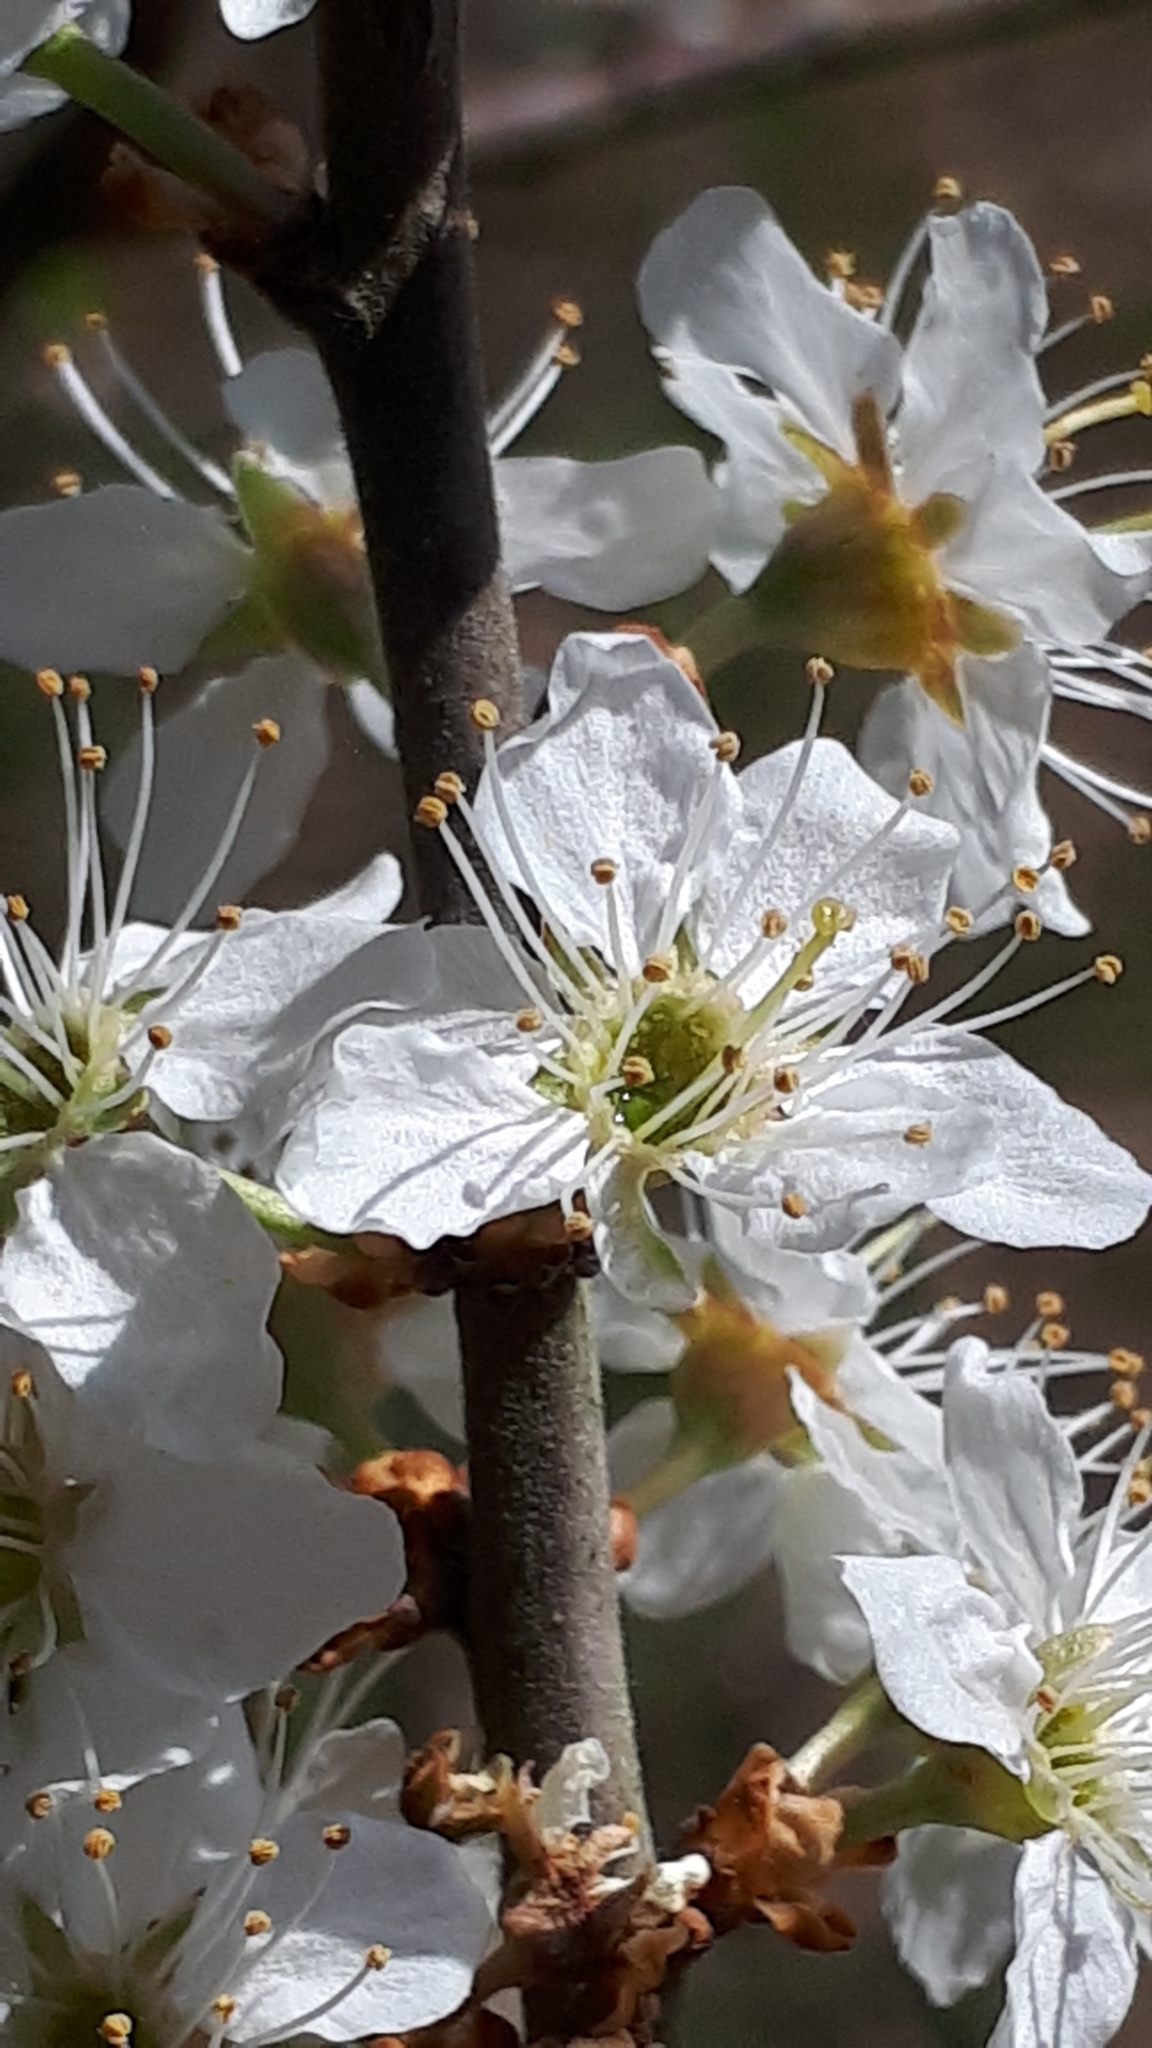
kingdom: Plantae
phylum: Tracheophyta
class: Magnoliopsida
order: Rosales
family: Rosaceae
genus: Prunus
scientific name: Prunus spinosa
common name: Blackthorn
